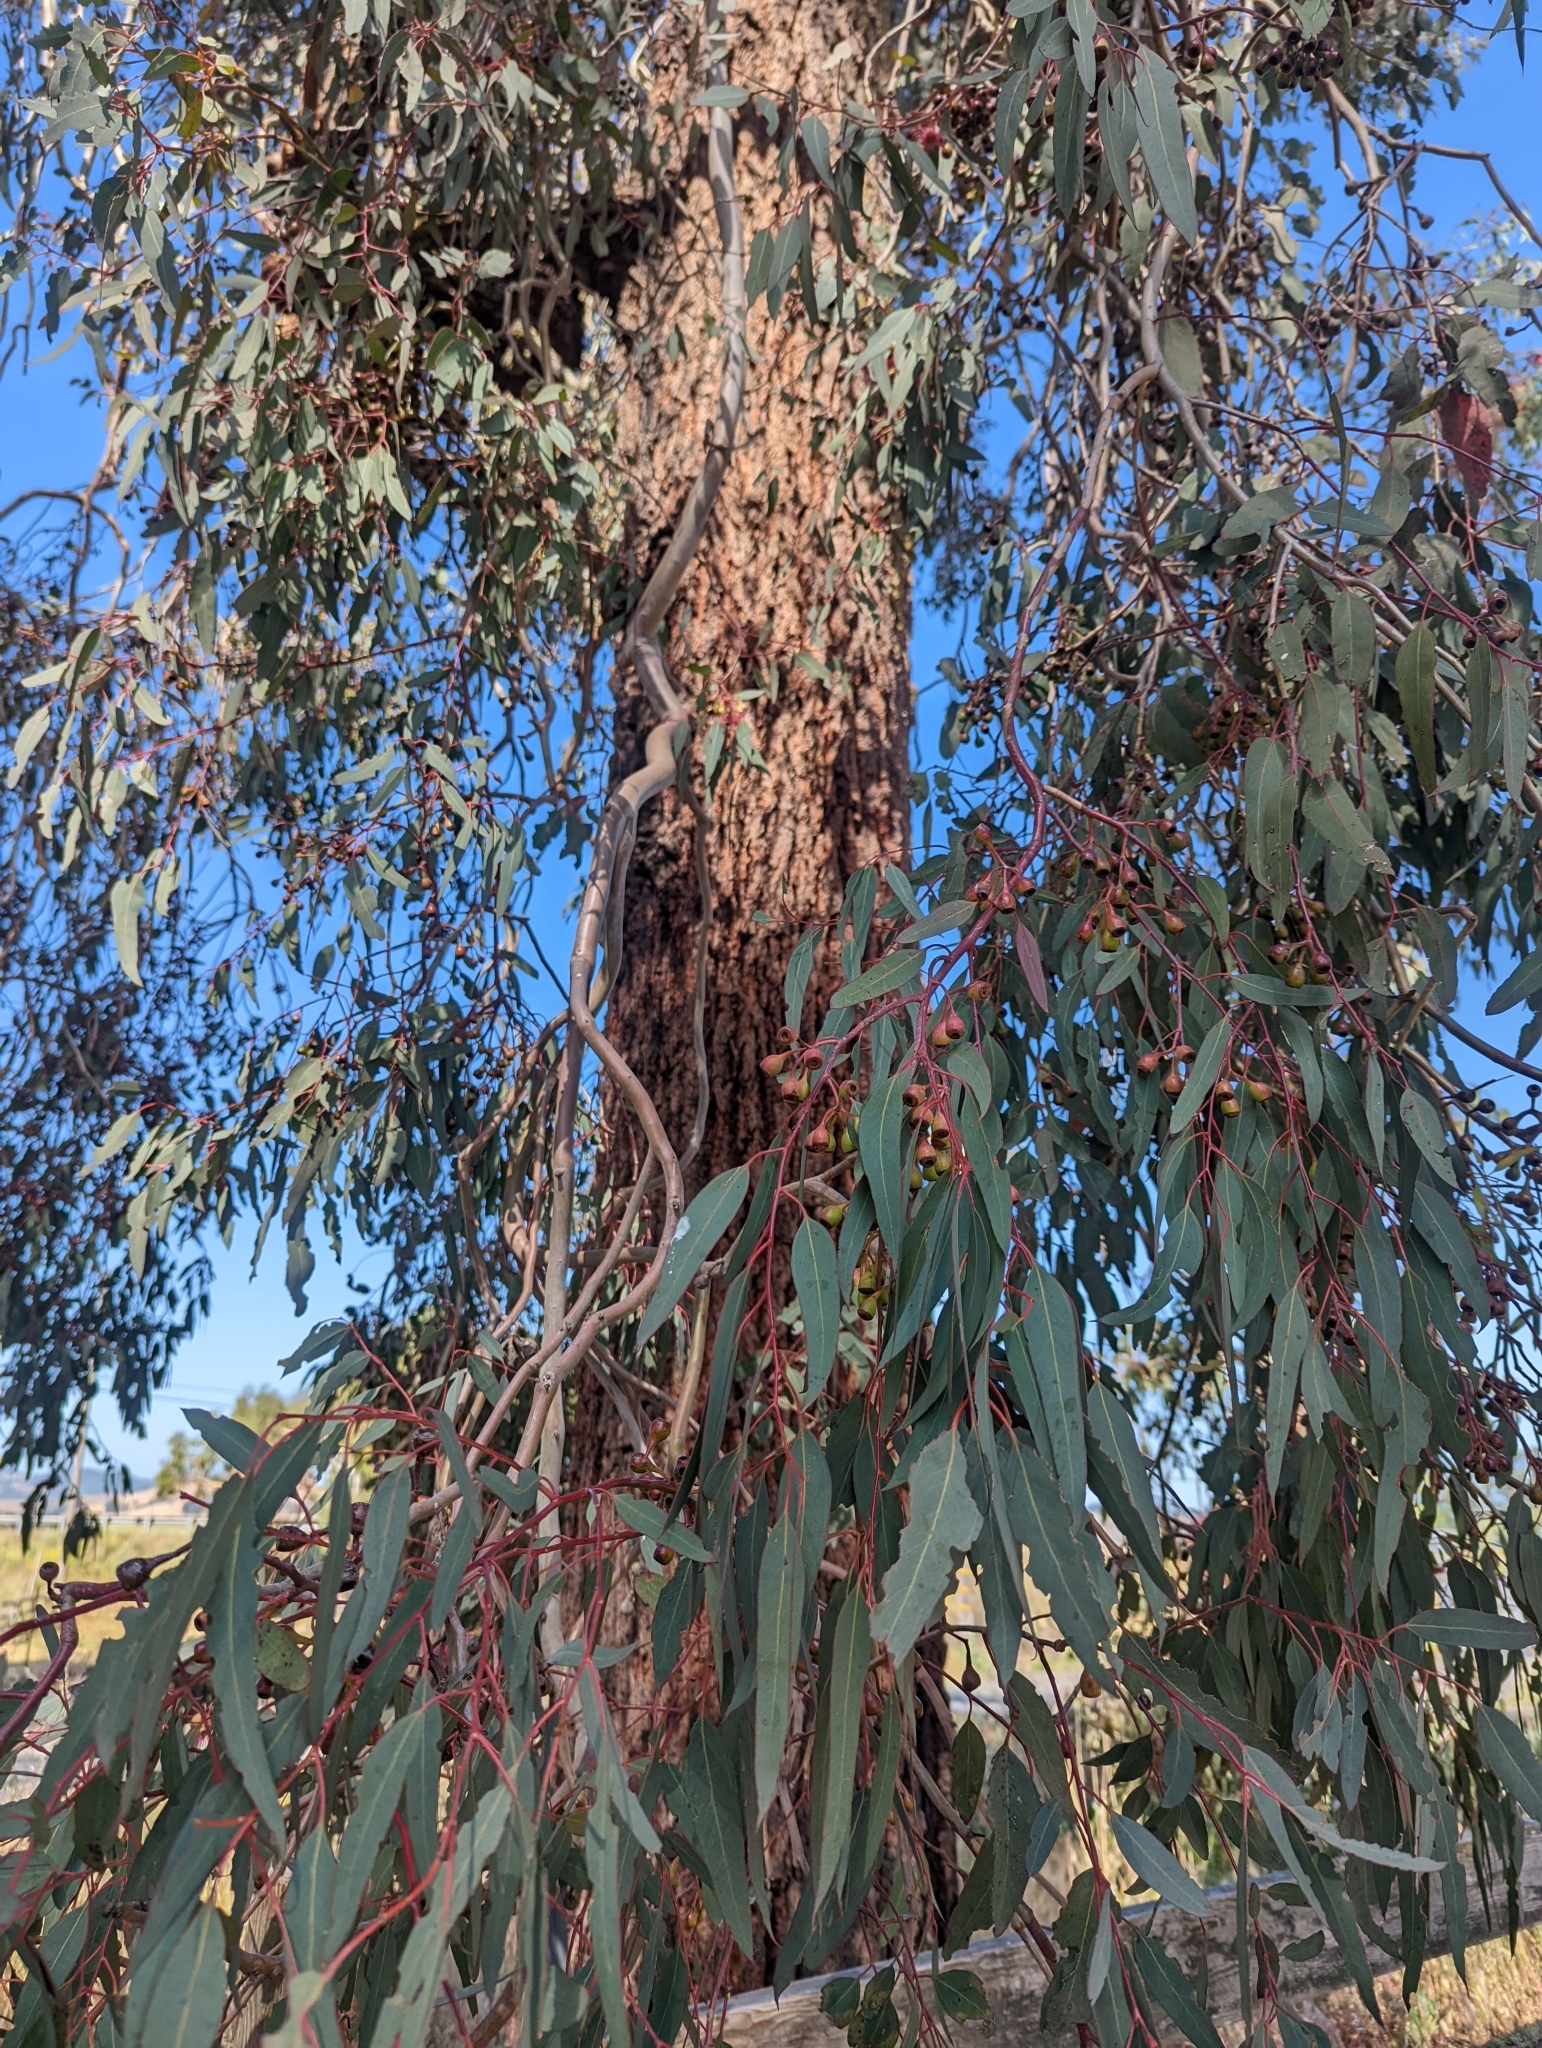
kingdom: Plantae
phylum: Tracheophyta
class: Magnoliopsida
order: Myrtales
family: Myrtaceae
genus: Eucalyptus
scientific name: Eucalyptus sideroxylon
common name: Red ironbark
